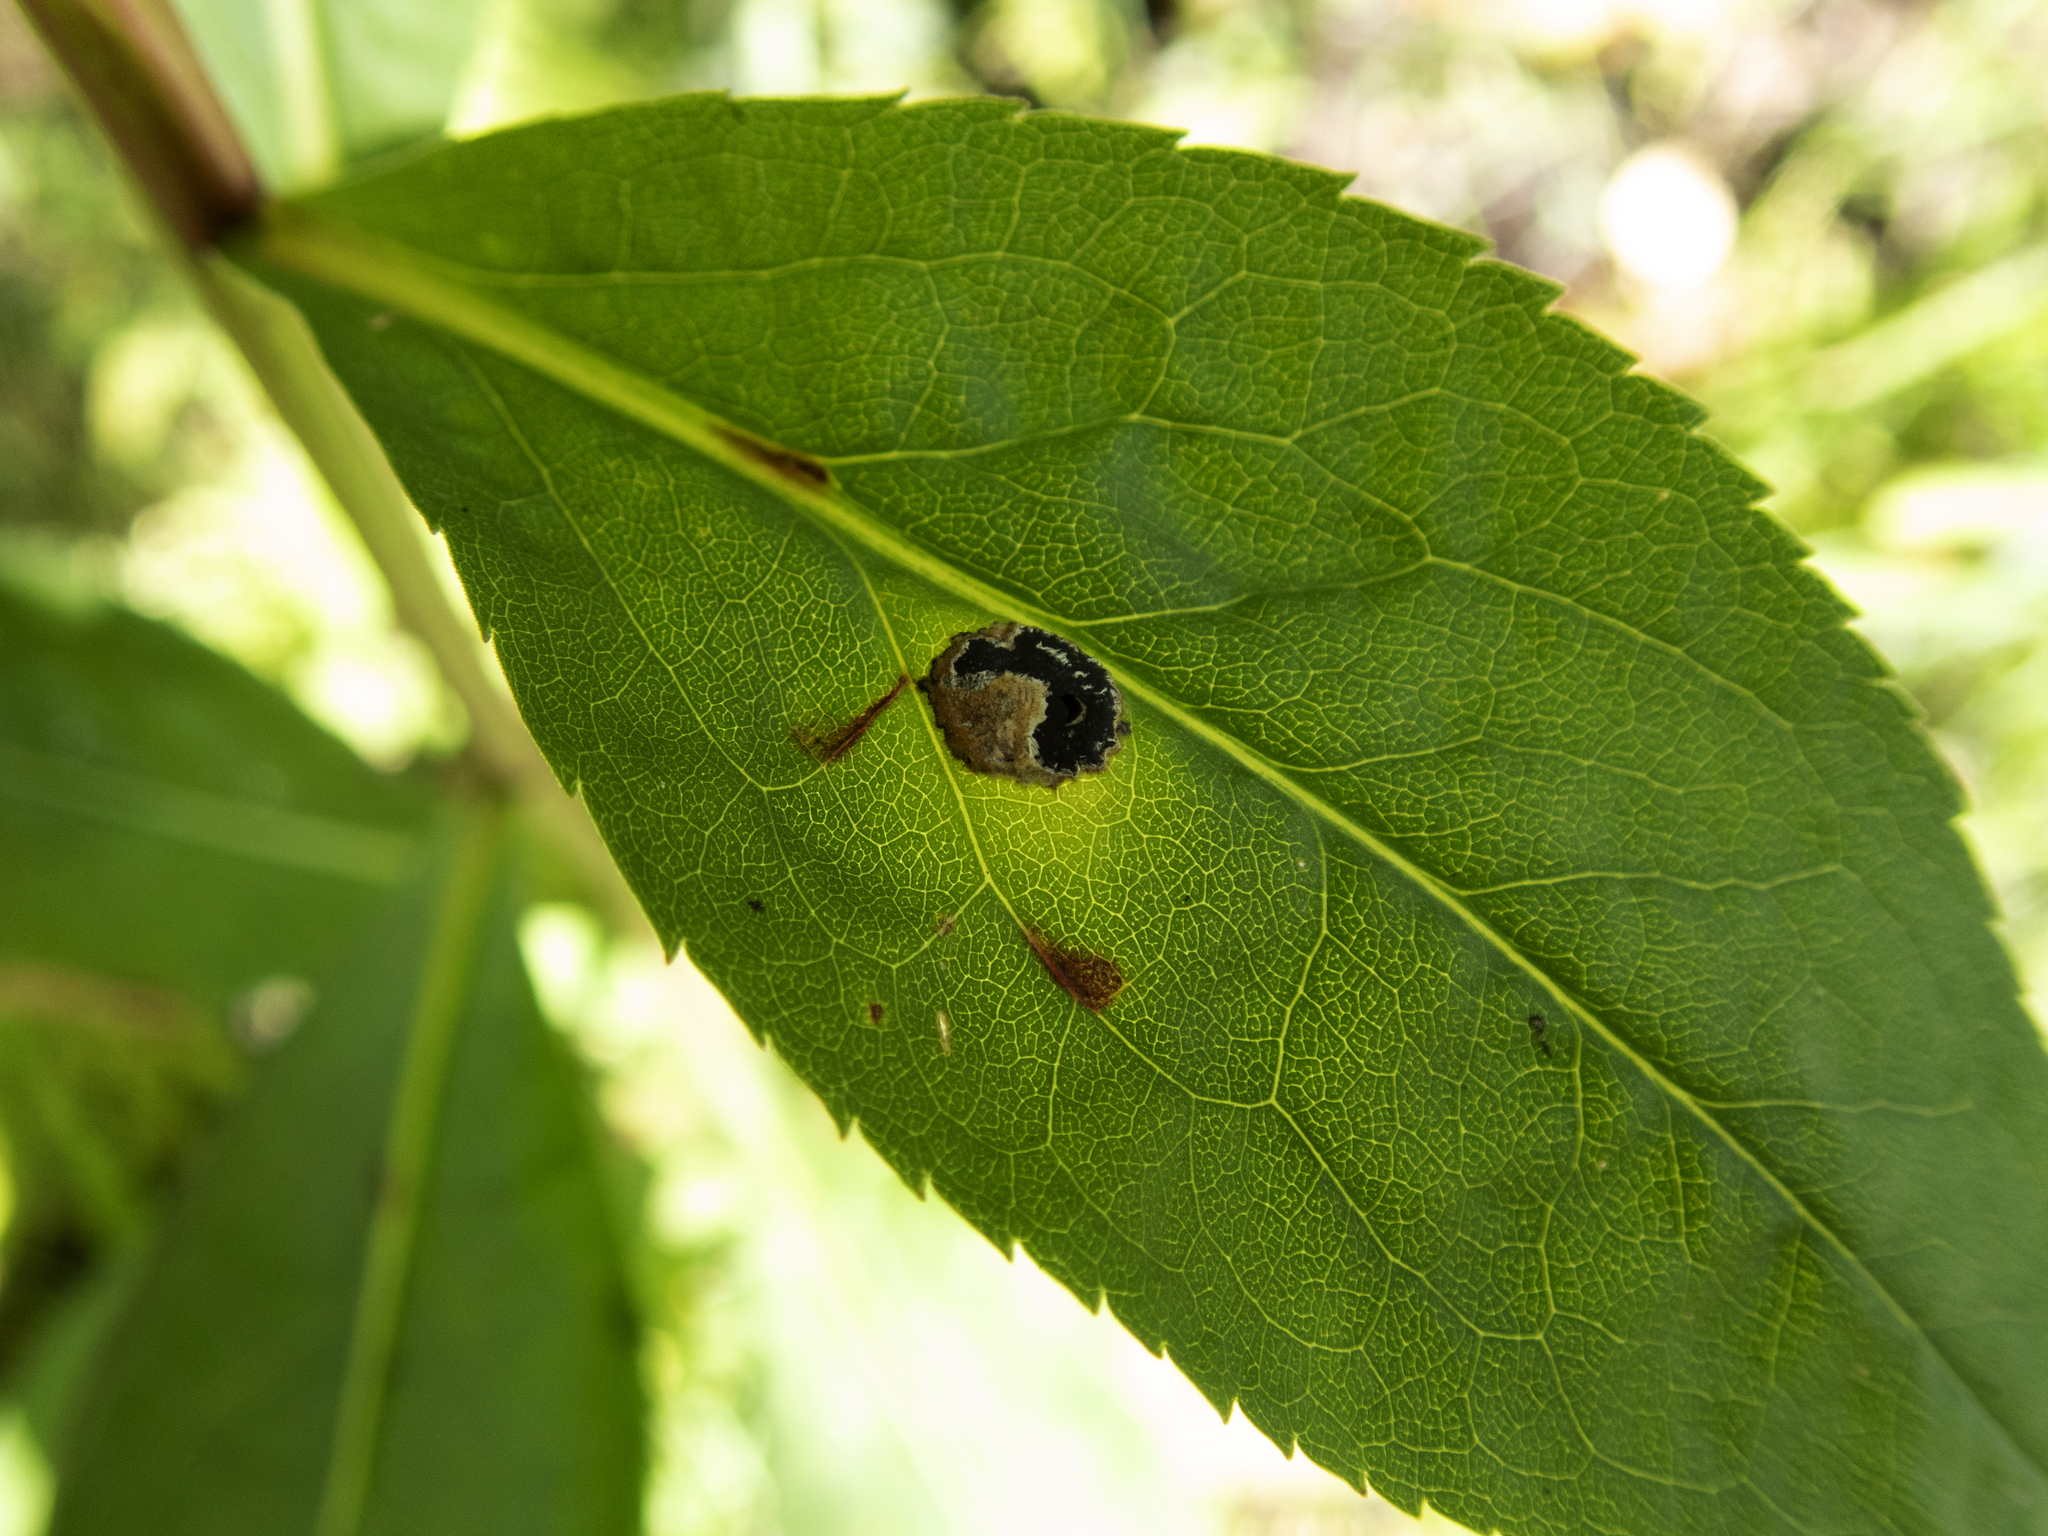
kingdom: Animalia
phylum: Arthropoda
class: Insecta
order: Diptera
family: Cecidomyiidae
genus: Asteromyia
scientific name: Asteromyia carbonifera
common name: Carbonifera goldenrod gall midge
